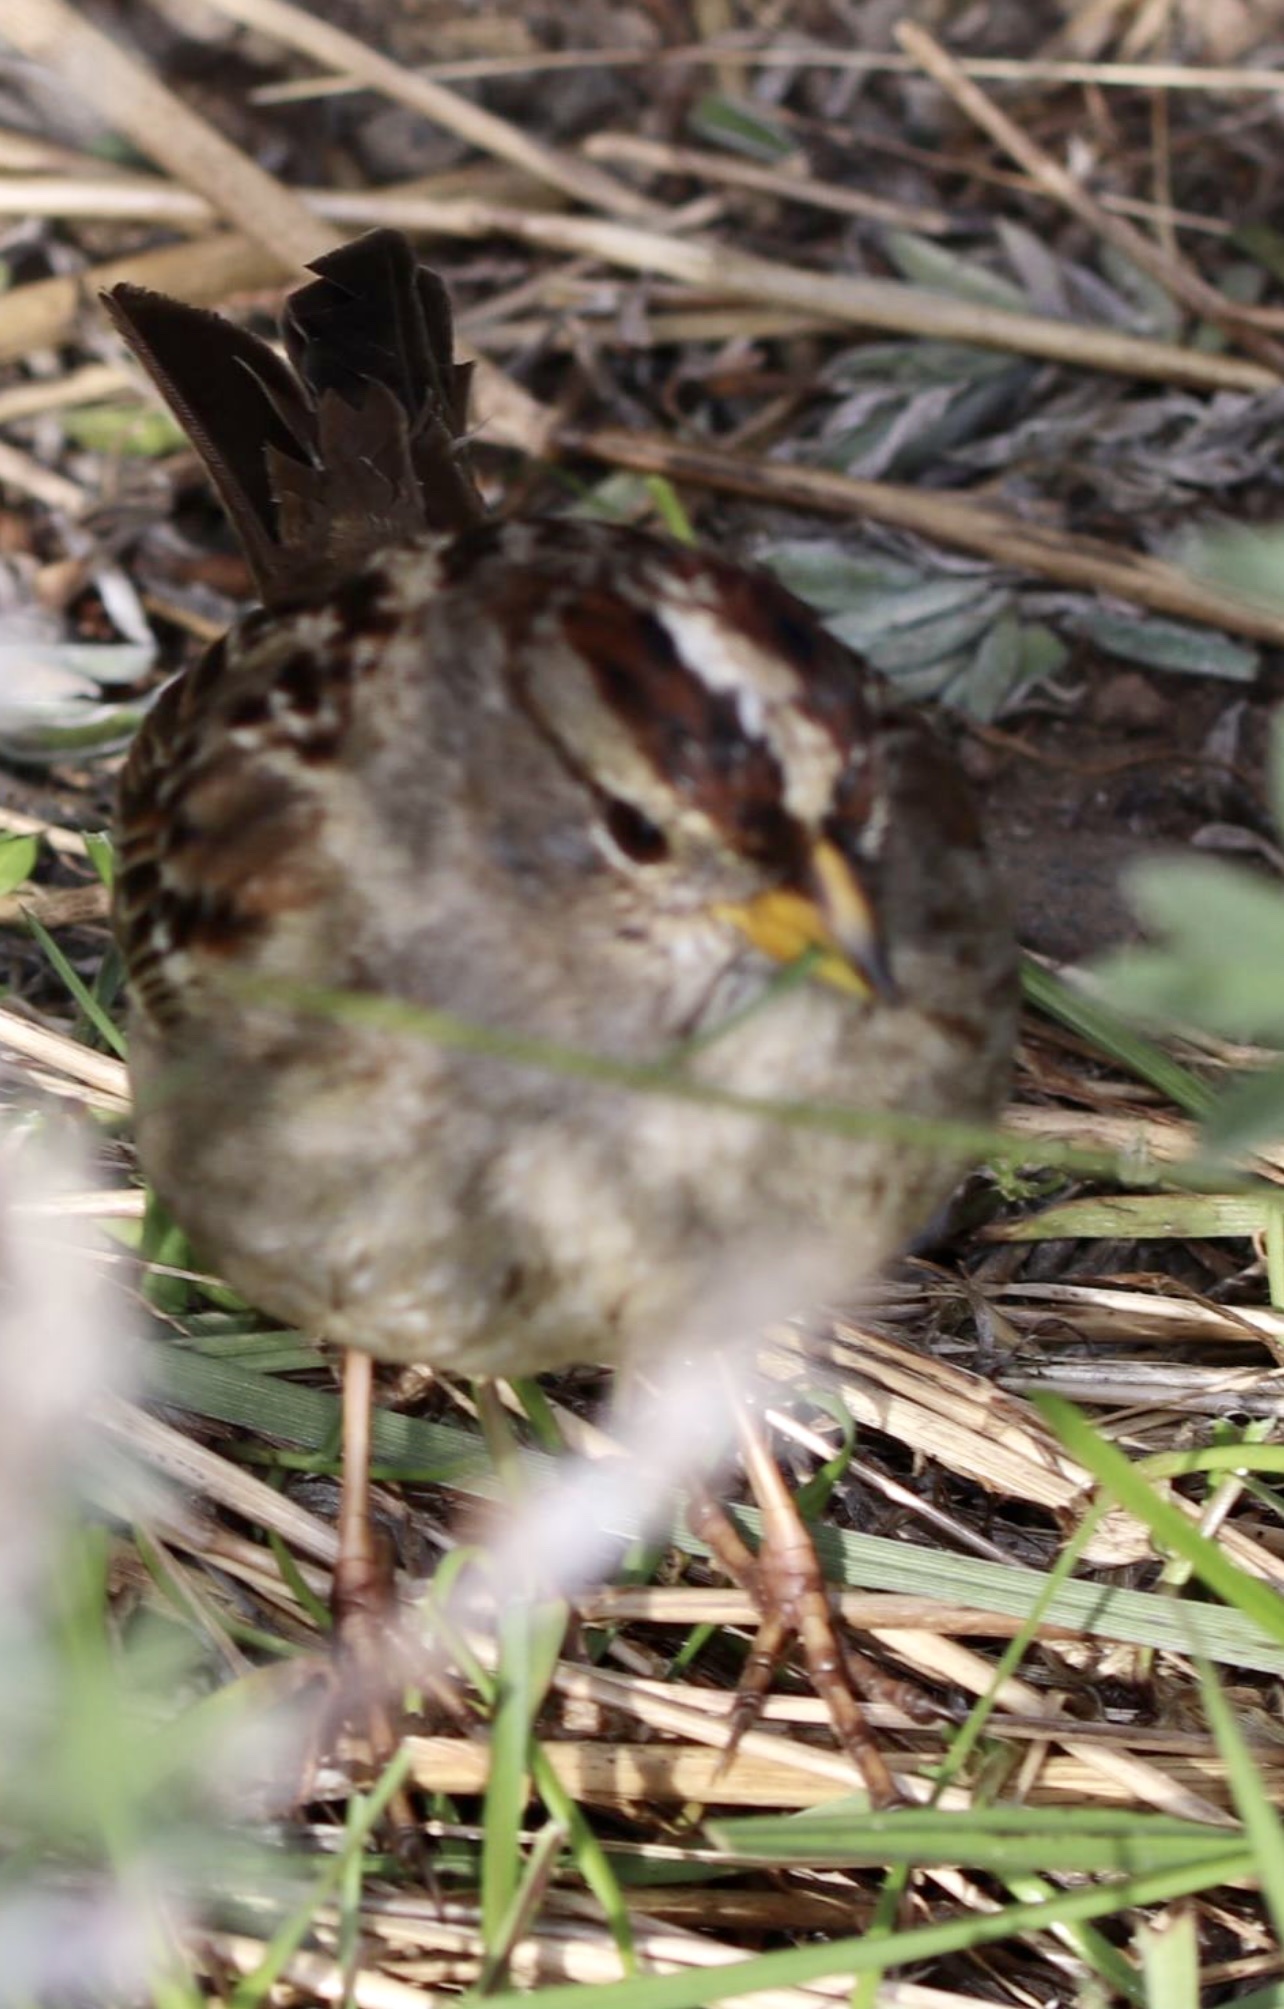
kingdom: Animalia
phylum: Chordata
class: Aves
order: Passeriformes
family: Passerellidae
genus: Zonotrichia
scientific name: Zonotrichia leucophrys
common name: White-crowned sparrow
